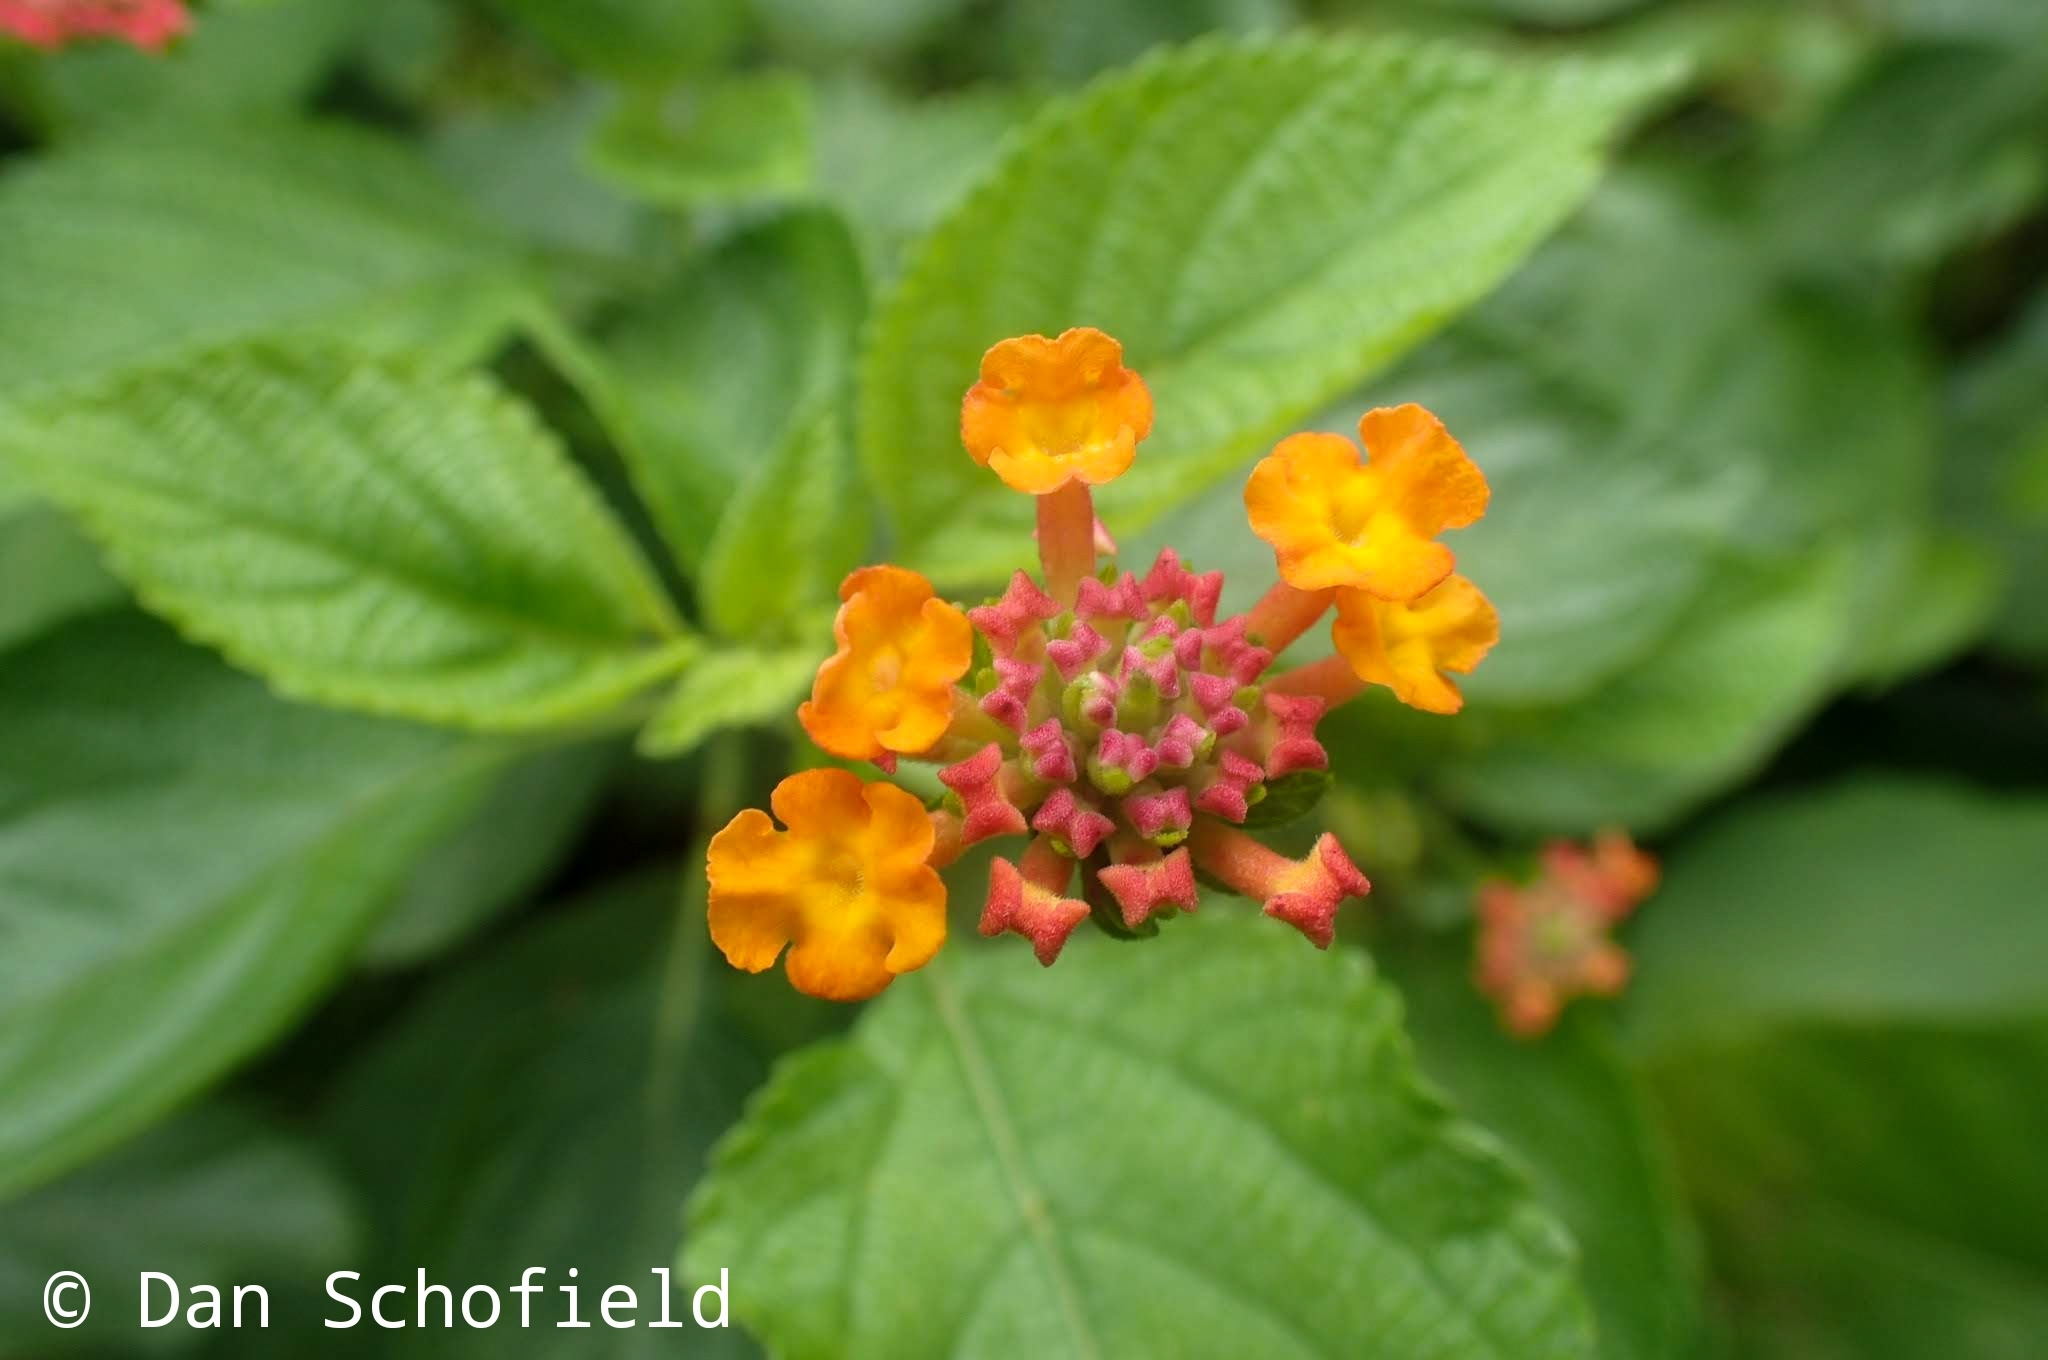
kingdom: Plantae
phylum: Tracheophyta
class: Magnoliopsida
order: Lamiales
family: Verbenaceae
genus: Lantana
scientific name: Lantana camara
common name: Lantana
